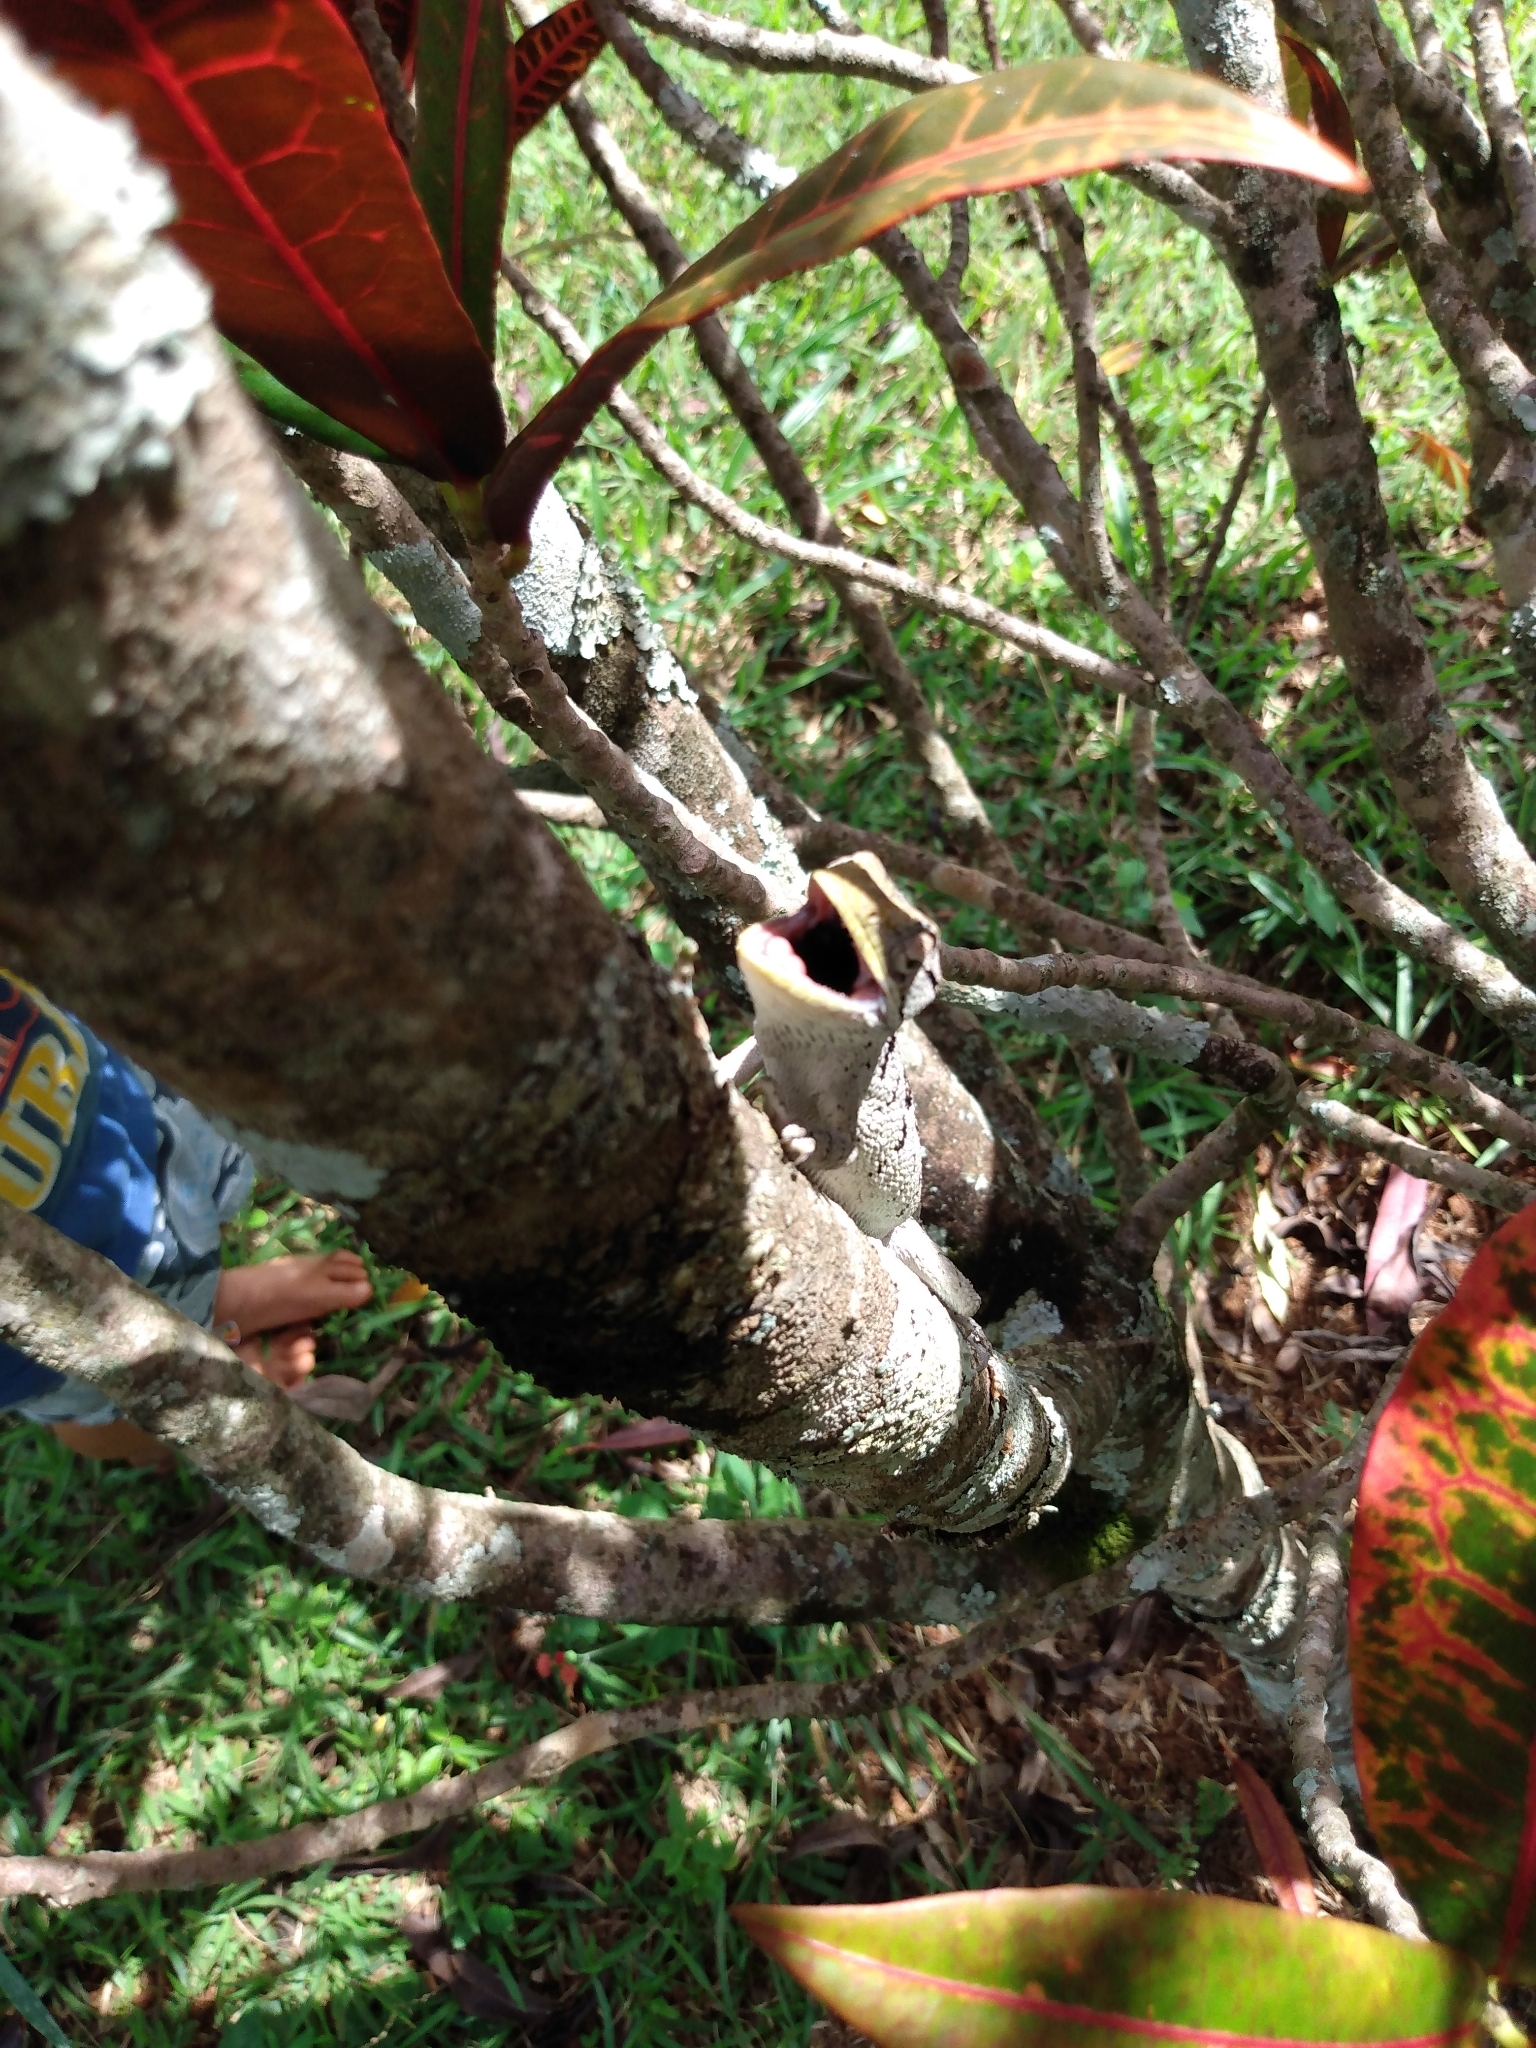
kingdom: Plantae
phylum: Tracheophyta
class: Magnoliopsida
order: Malpighiales
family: Euphorbiaceae
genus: Codiaeum
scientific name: Codiaeum variegatum
